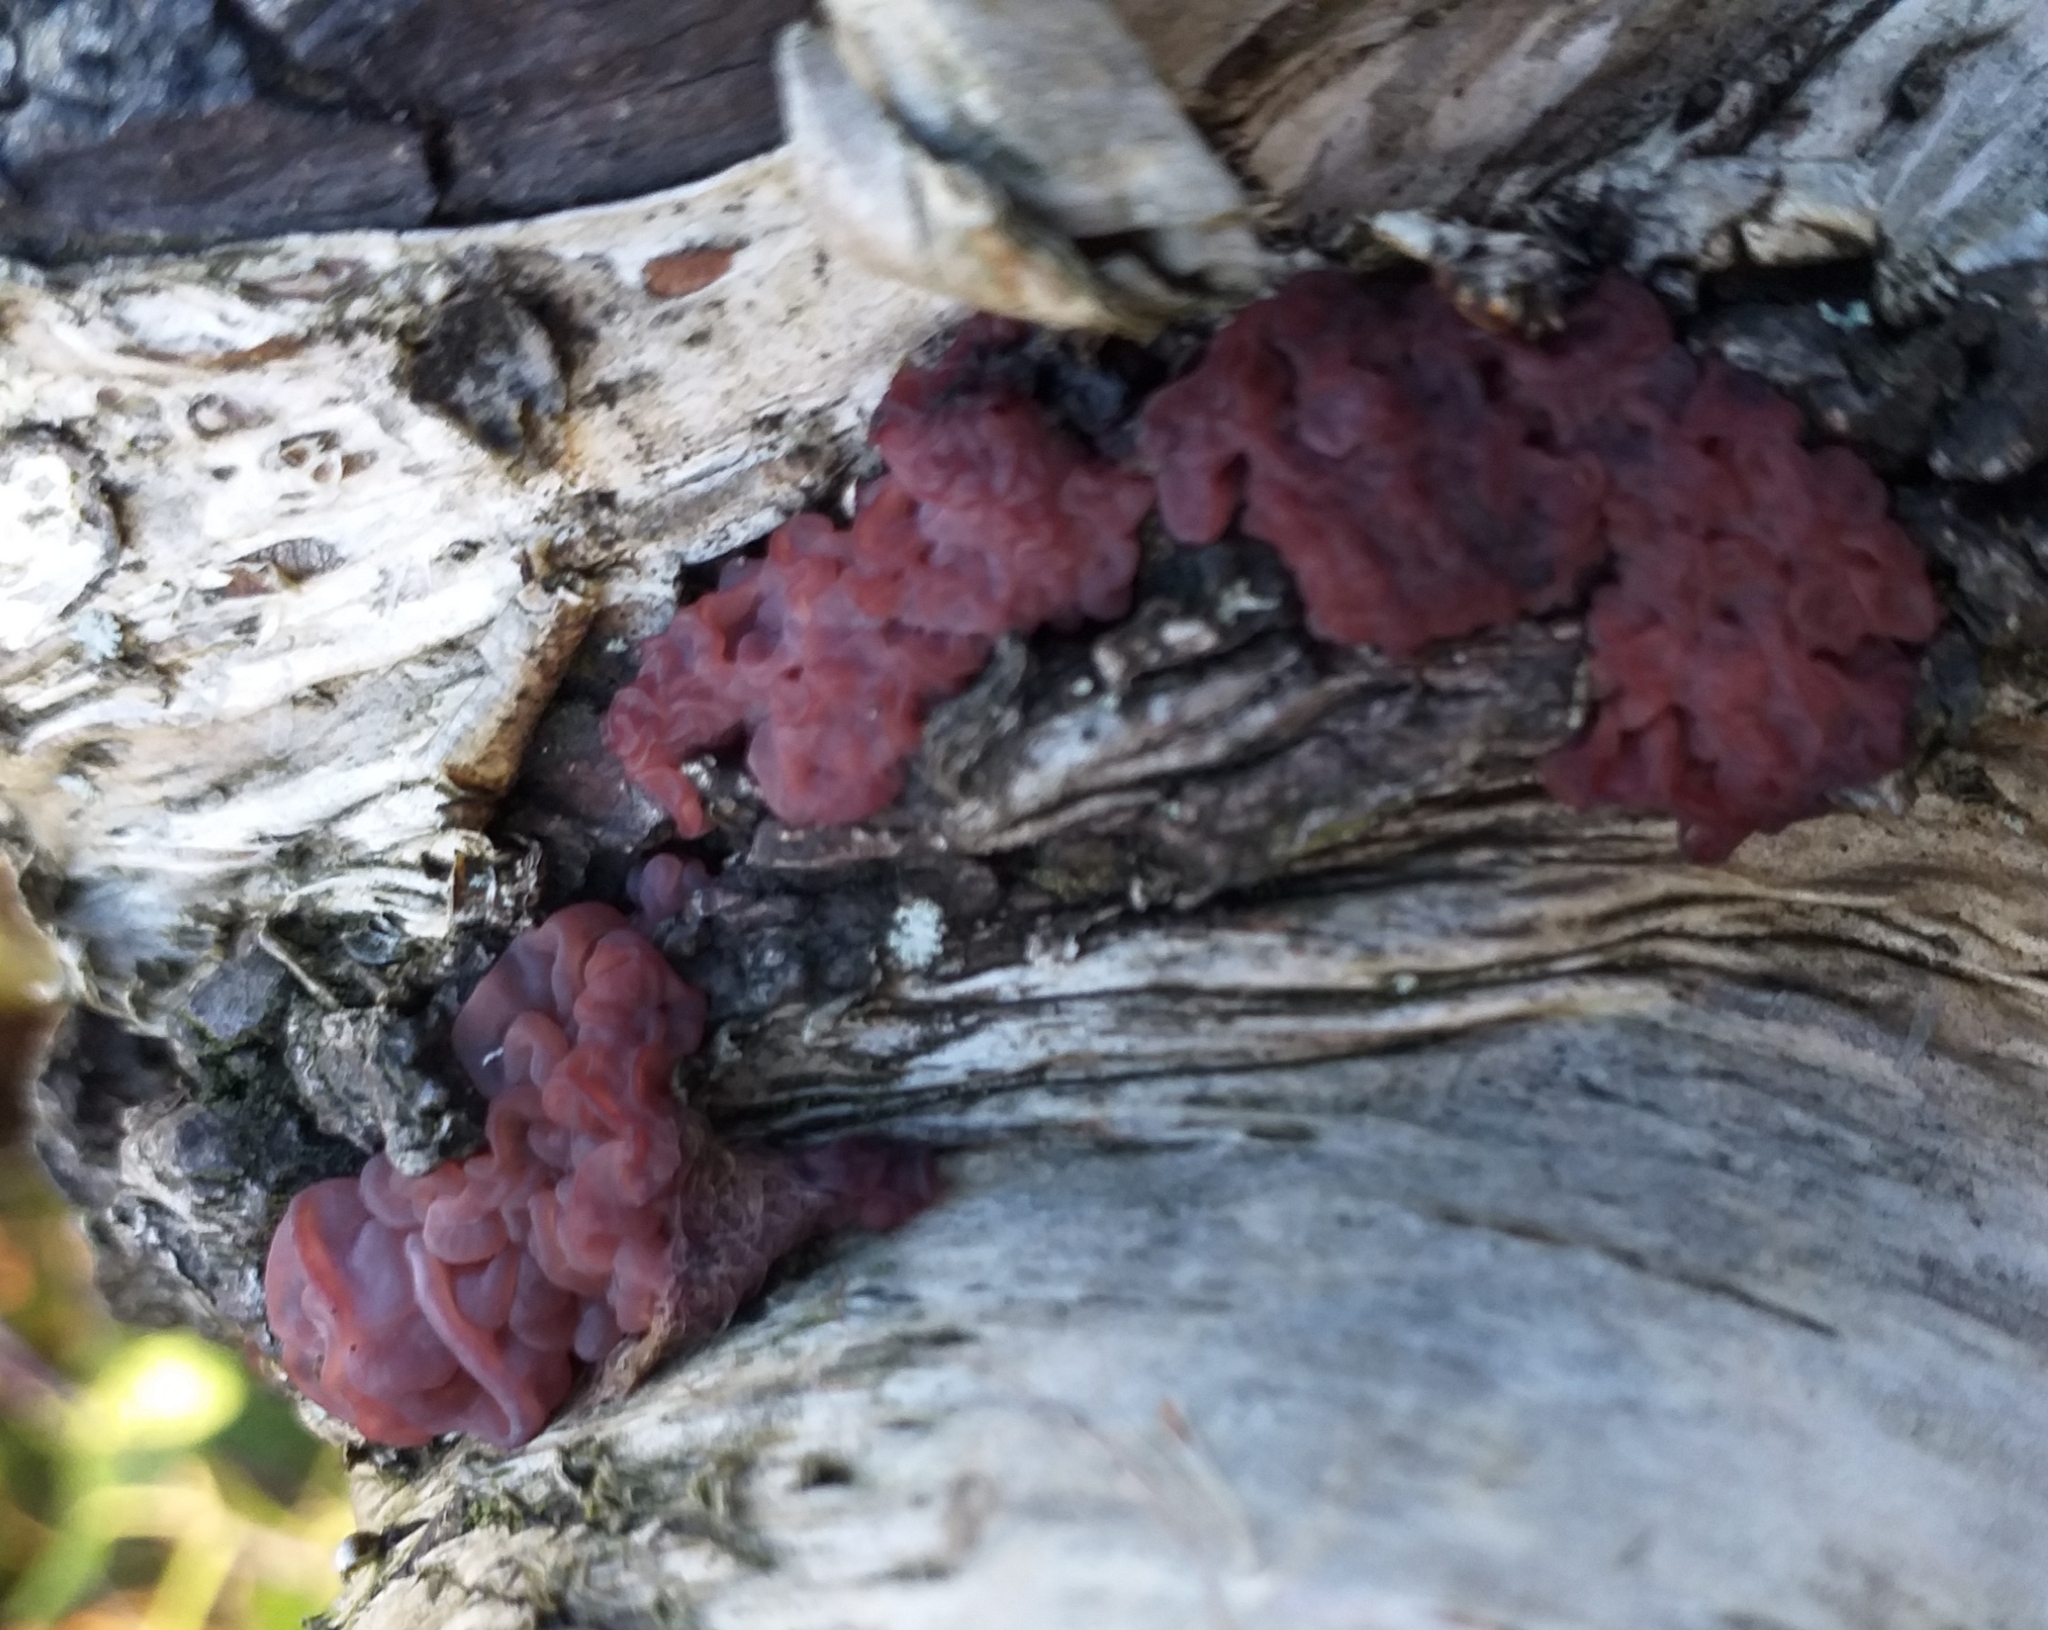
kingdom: Fungi
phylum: Ascomycota
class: Leotiomycetes
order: Helotiales
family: Gelatinodiscaceae
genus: Ascocoryne
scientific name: Ascocoryne sarcoides
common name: Purple jellydisc
